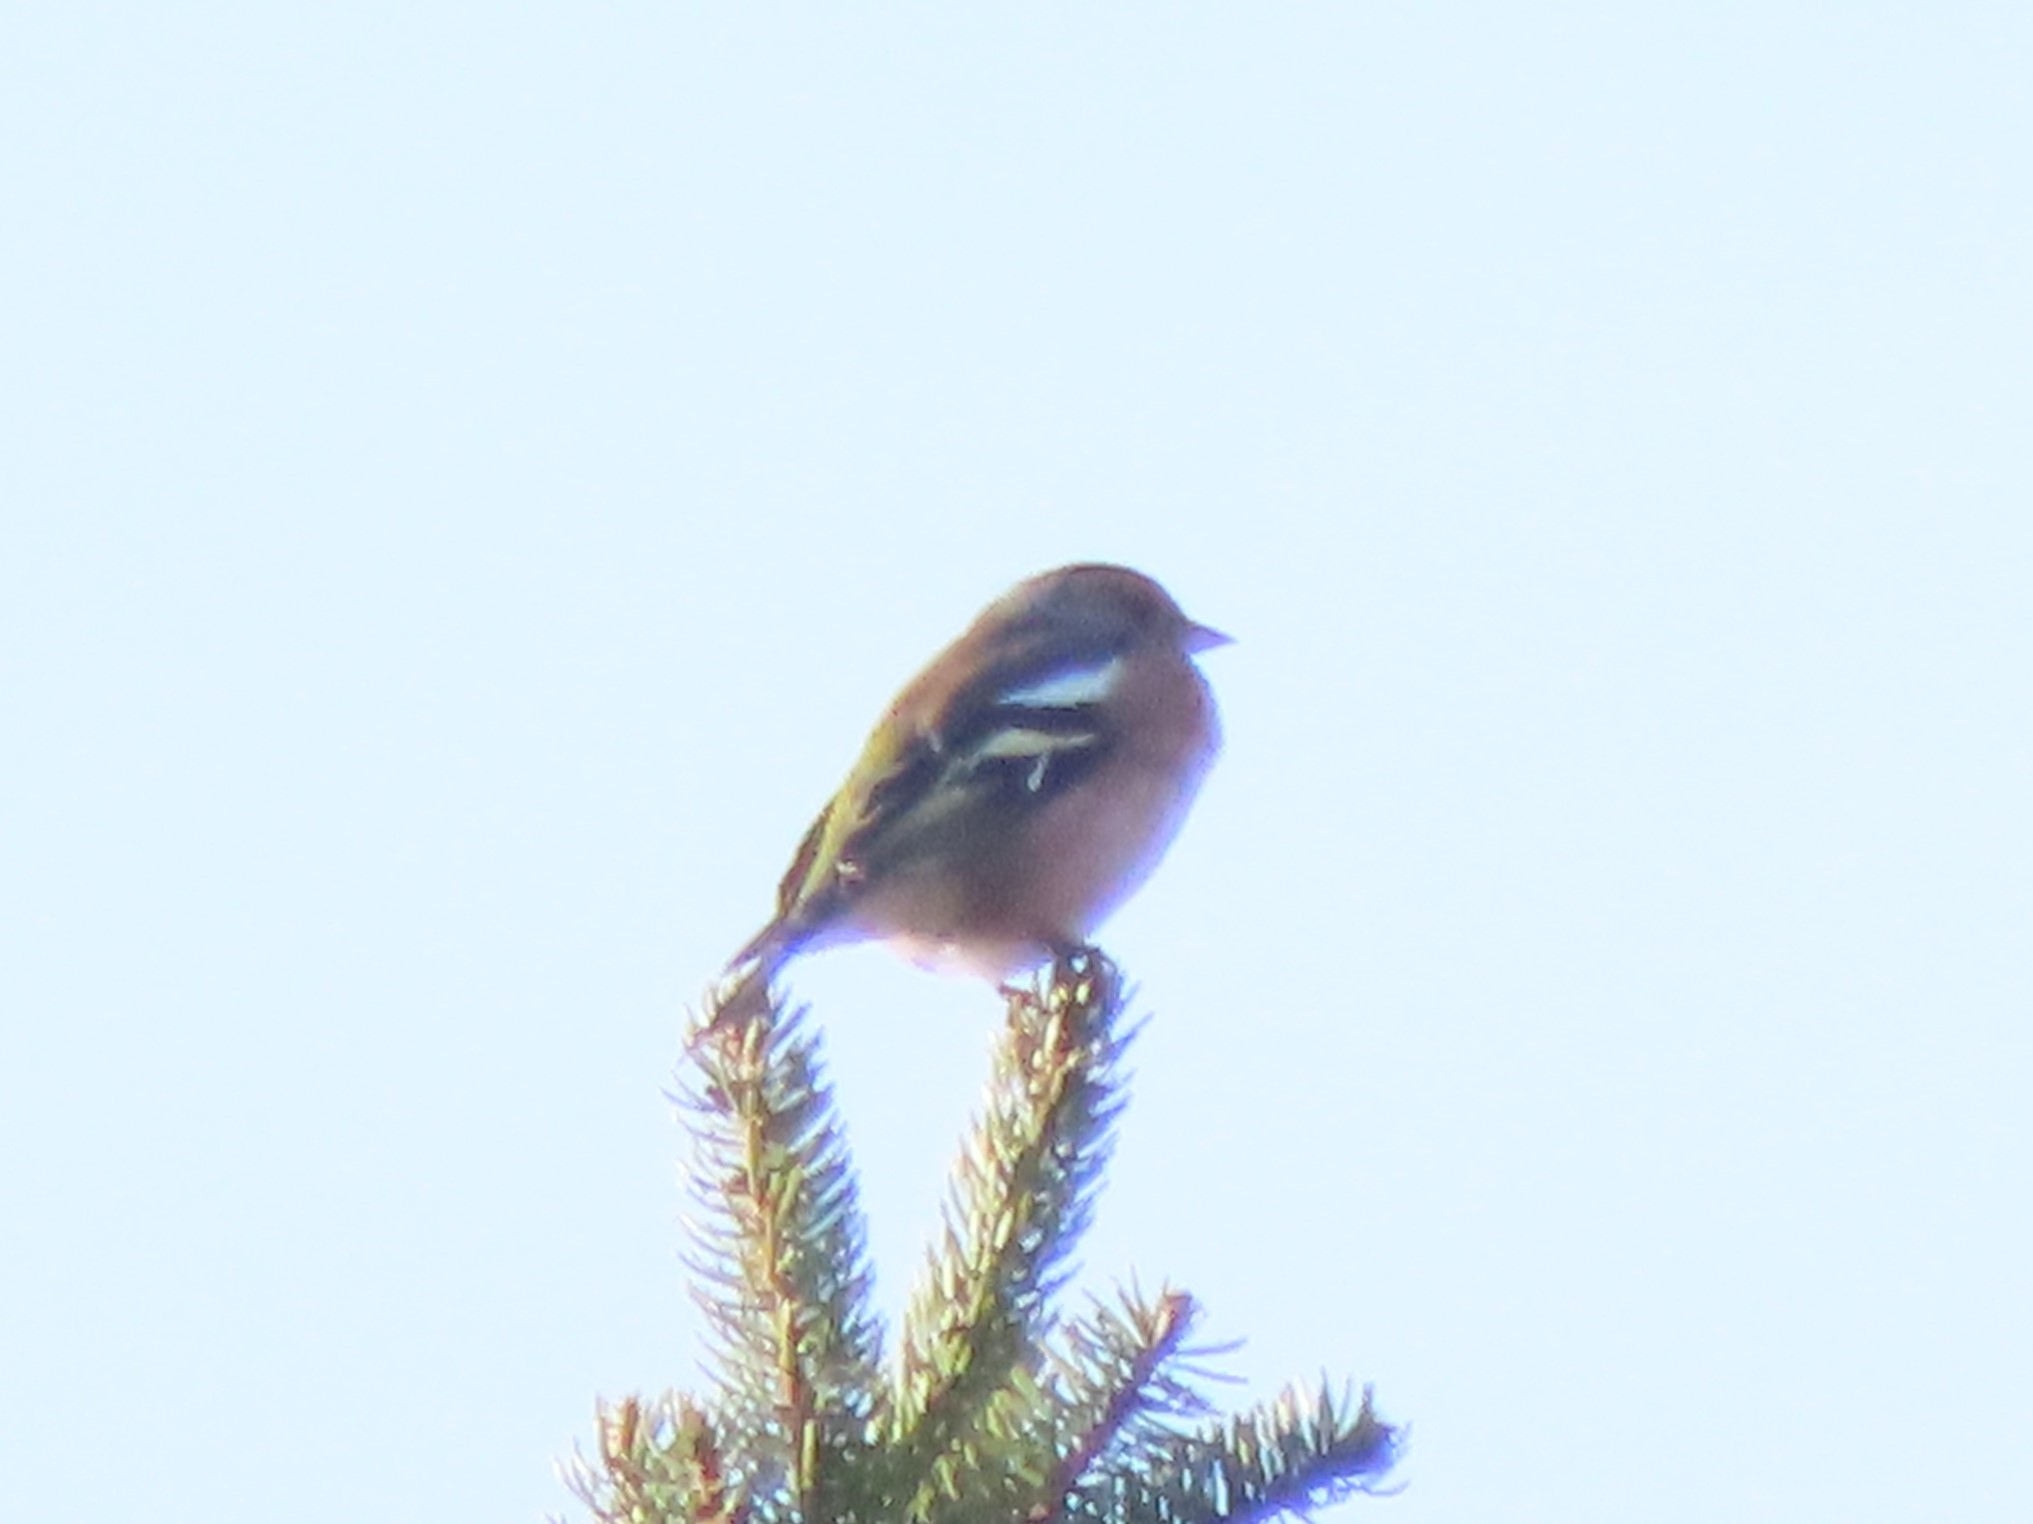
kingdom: Animalia
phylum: Chordata
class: Aves
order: Passeriformes
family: Fringillidae
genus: Fringilla
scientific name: Fringilla coelebs
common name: Common chaffinch
